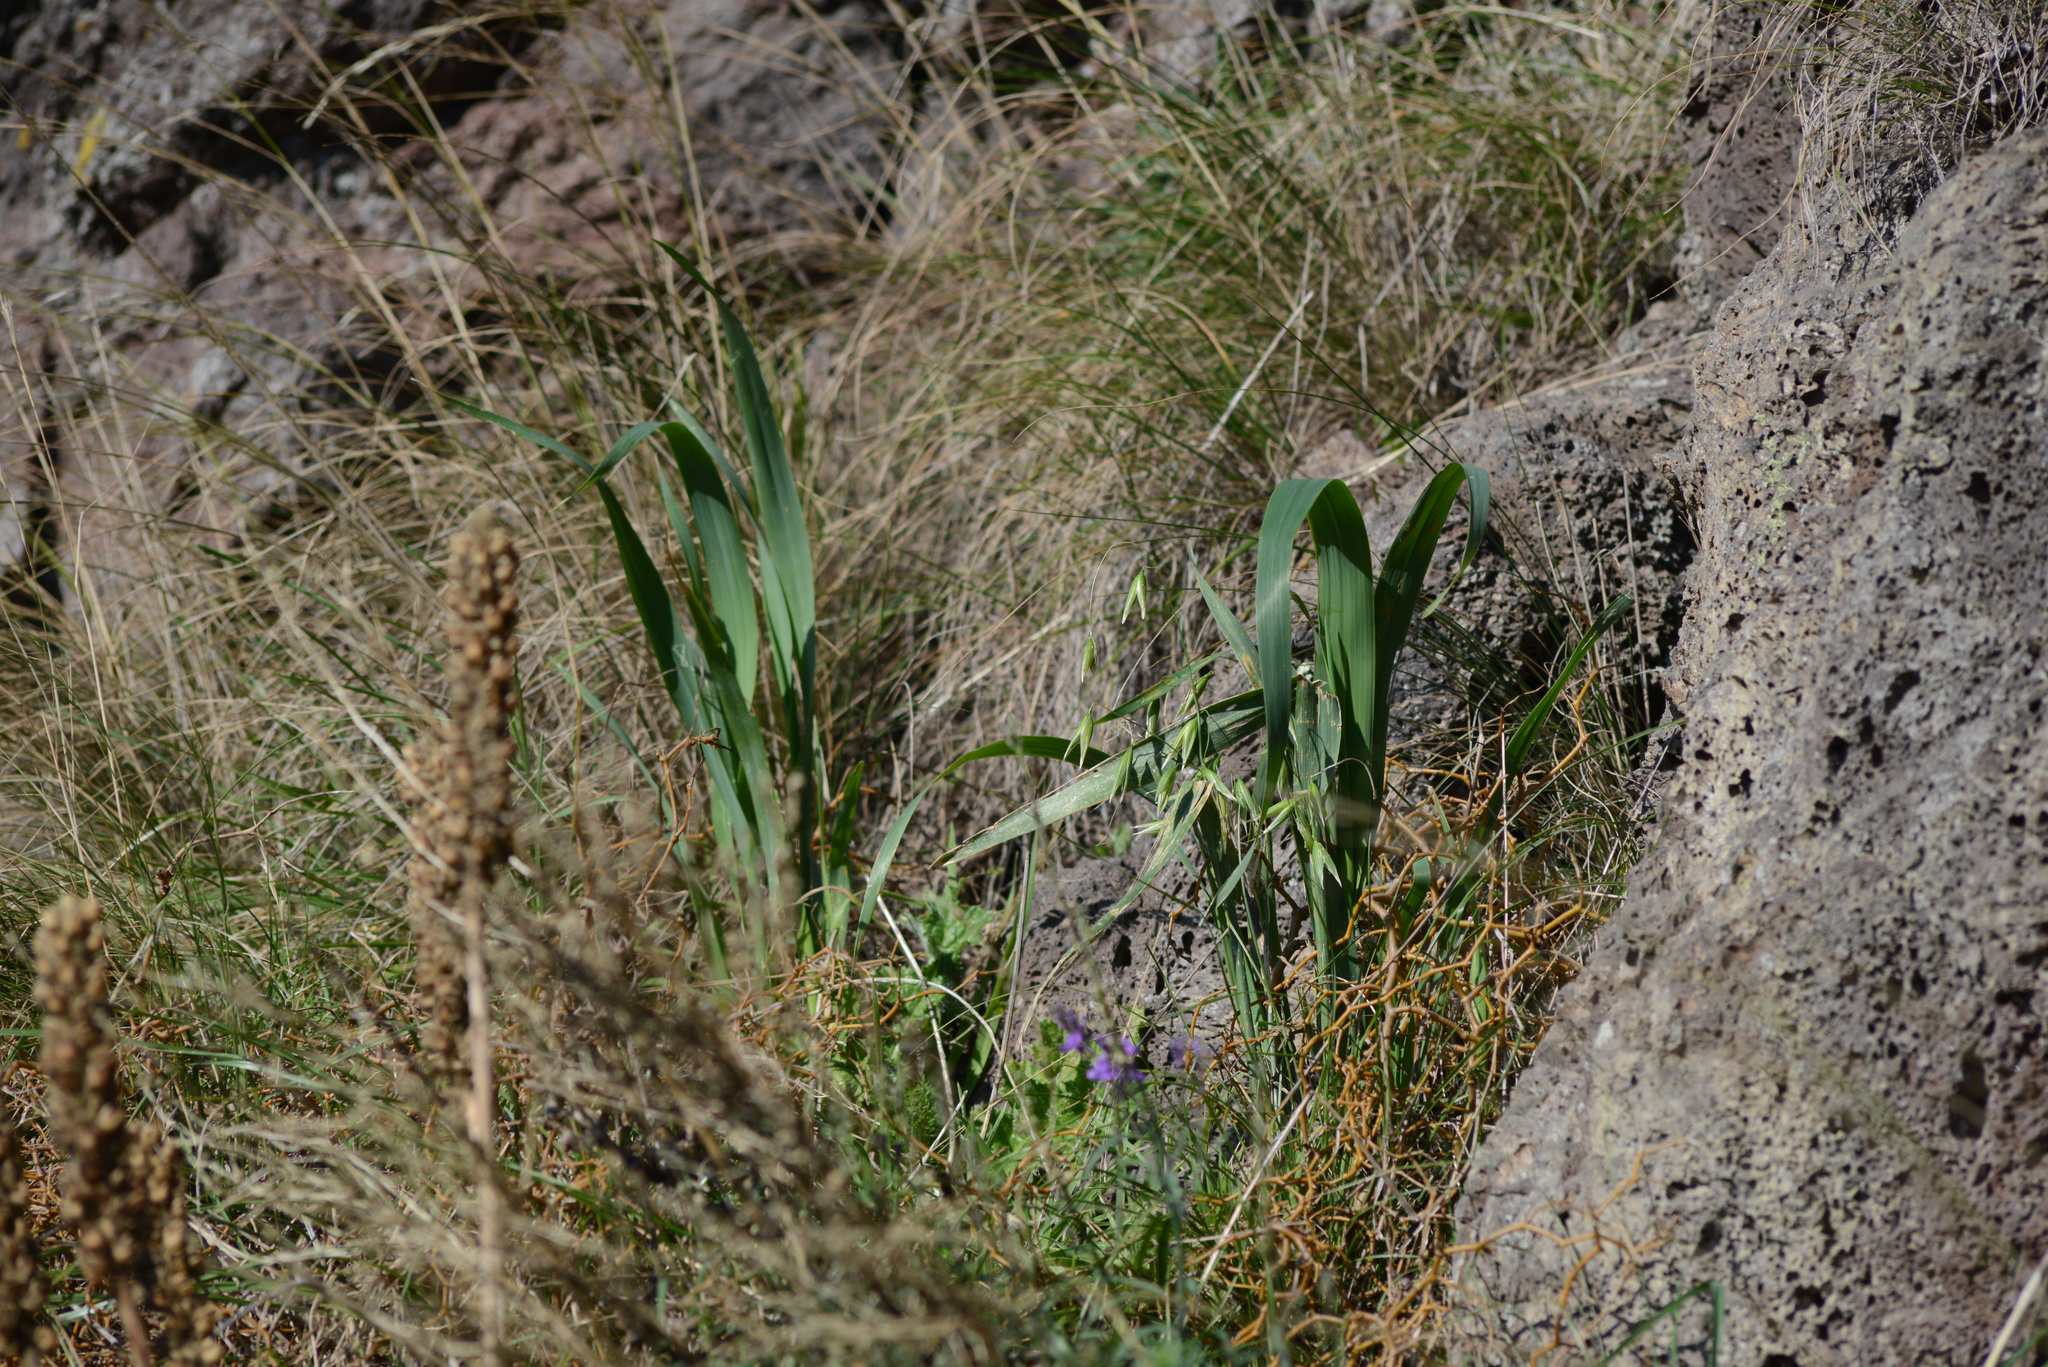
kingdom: Plantae
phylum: Tracheophyta
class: Liliopsida
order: Poales
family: Poaceae
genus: Avena
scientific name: Avena sativa
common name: Oat
